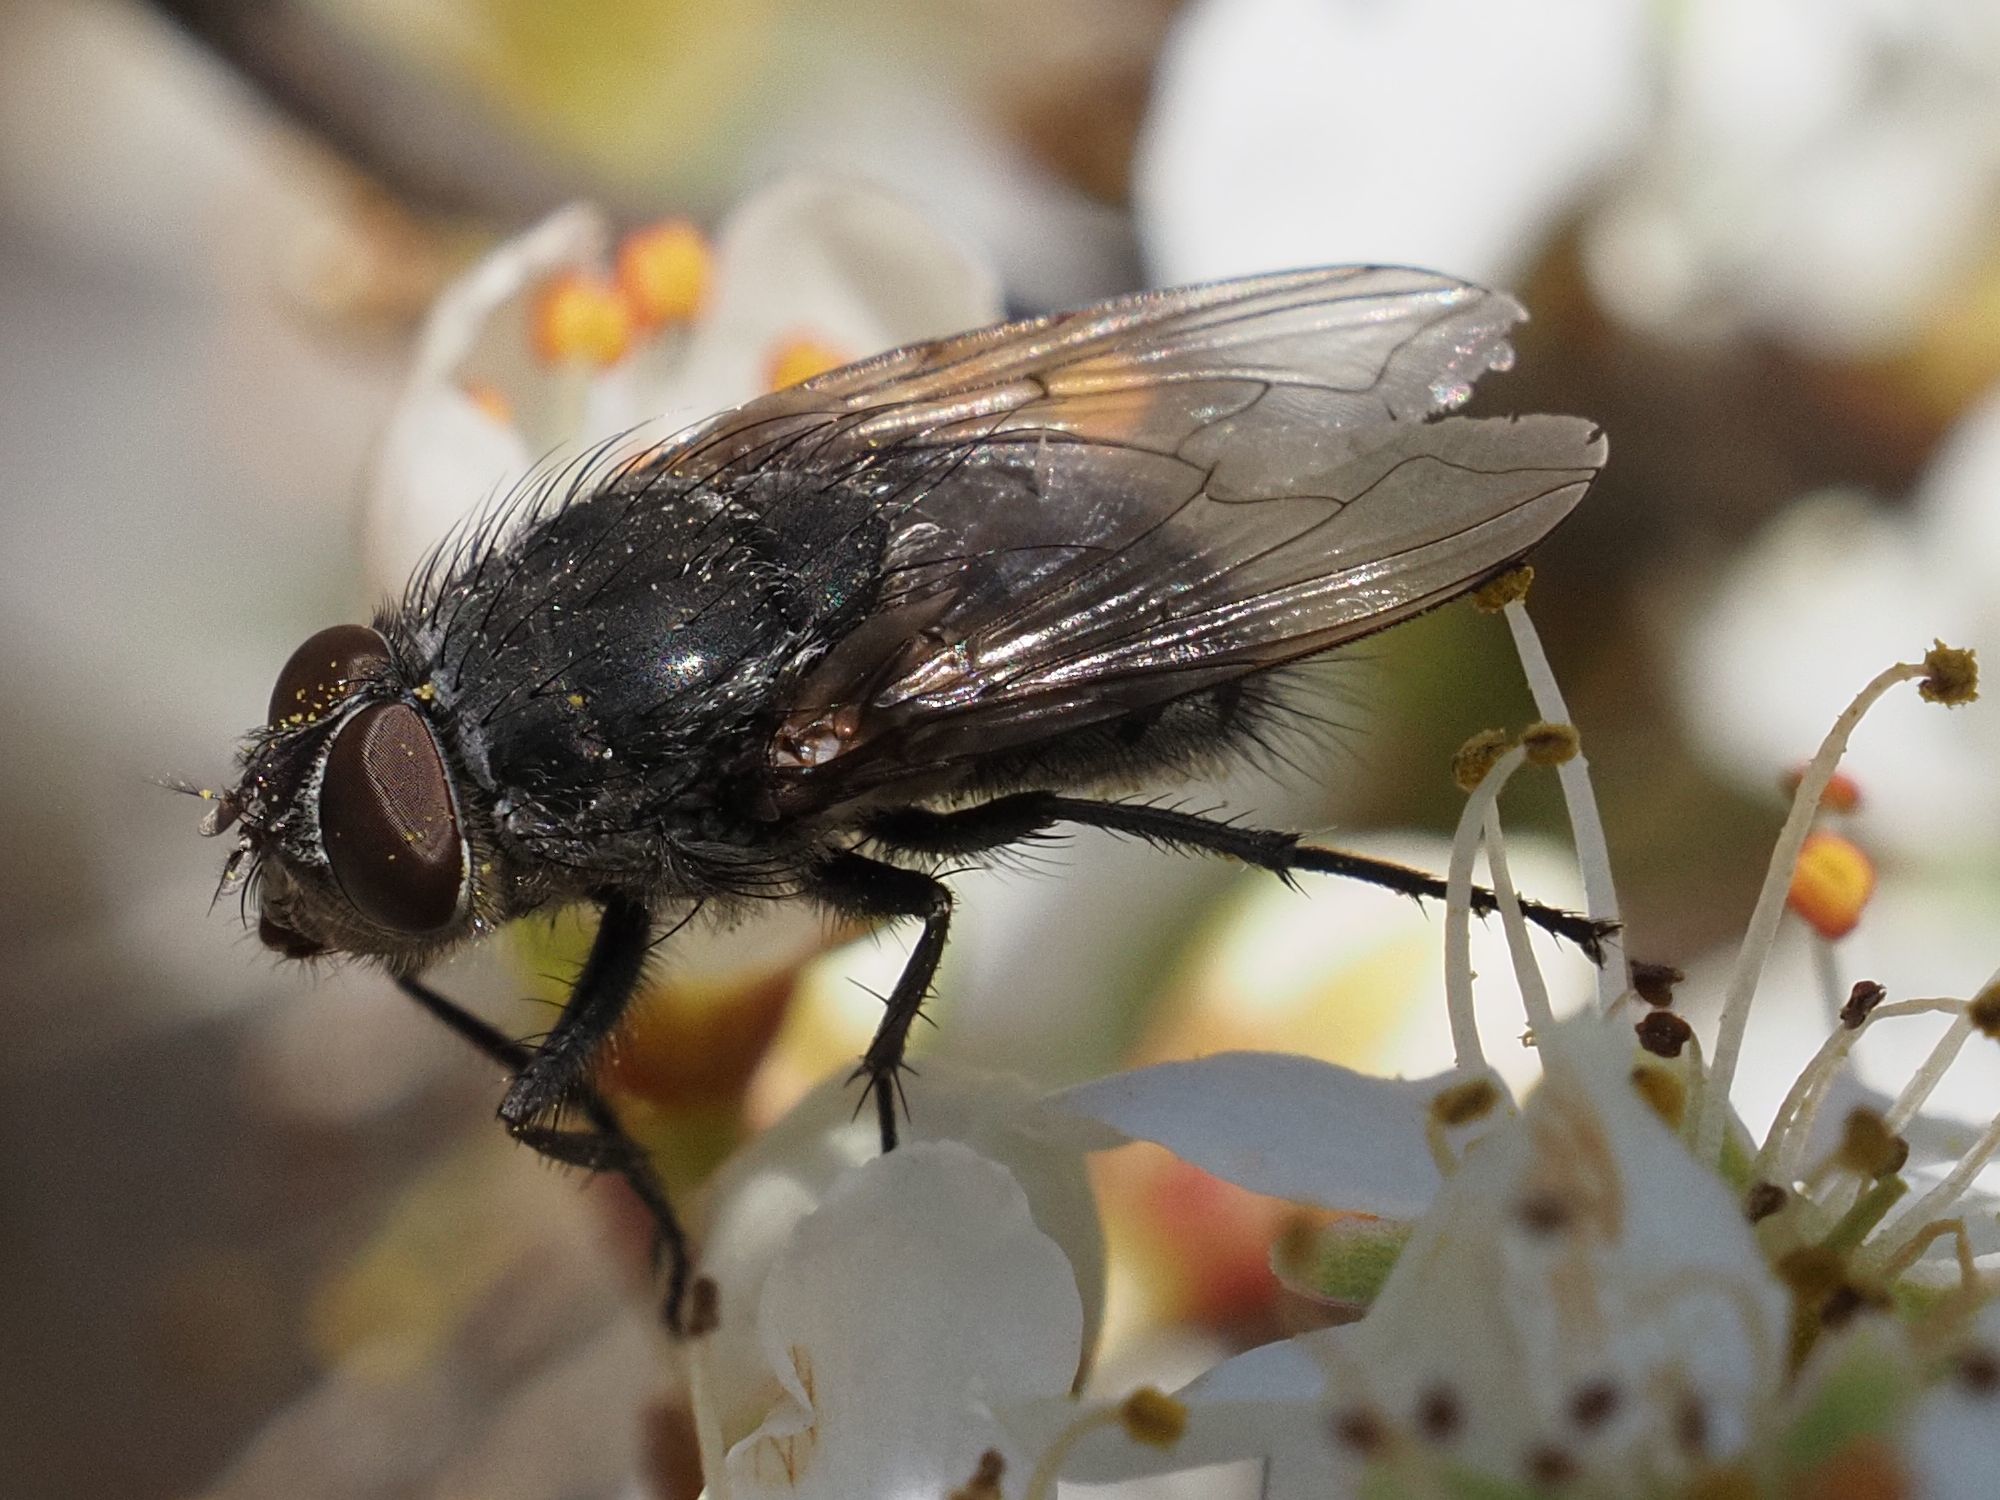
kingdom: Animalia
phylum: Arthropoda
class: Insecta
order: Diptera
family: Polleniidae
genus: Pollenia
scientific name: Pollenia rudis
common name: Awkward clusterfly
